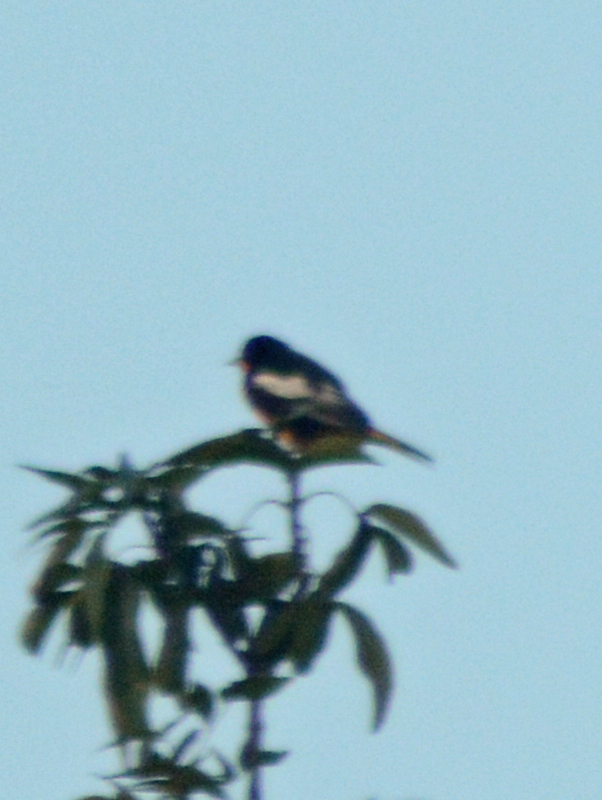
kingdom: Animalia
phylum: Chordata
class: Aves
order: Passeriformes
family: Icteridae
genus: Icterus
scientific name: Icterus abeillei
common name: Black-backed oriole
